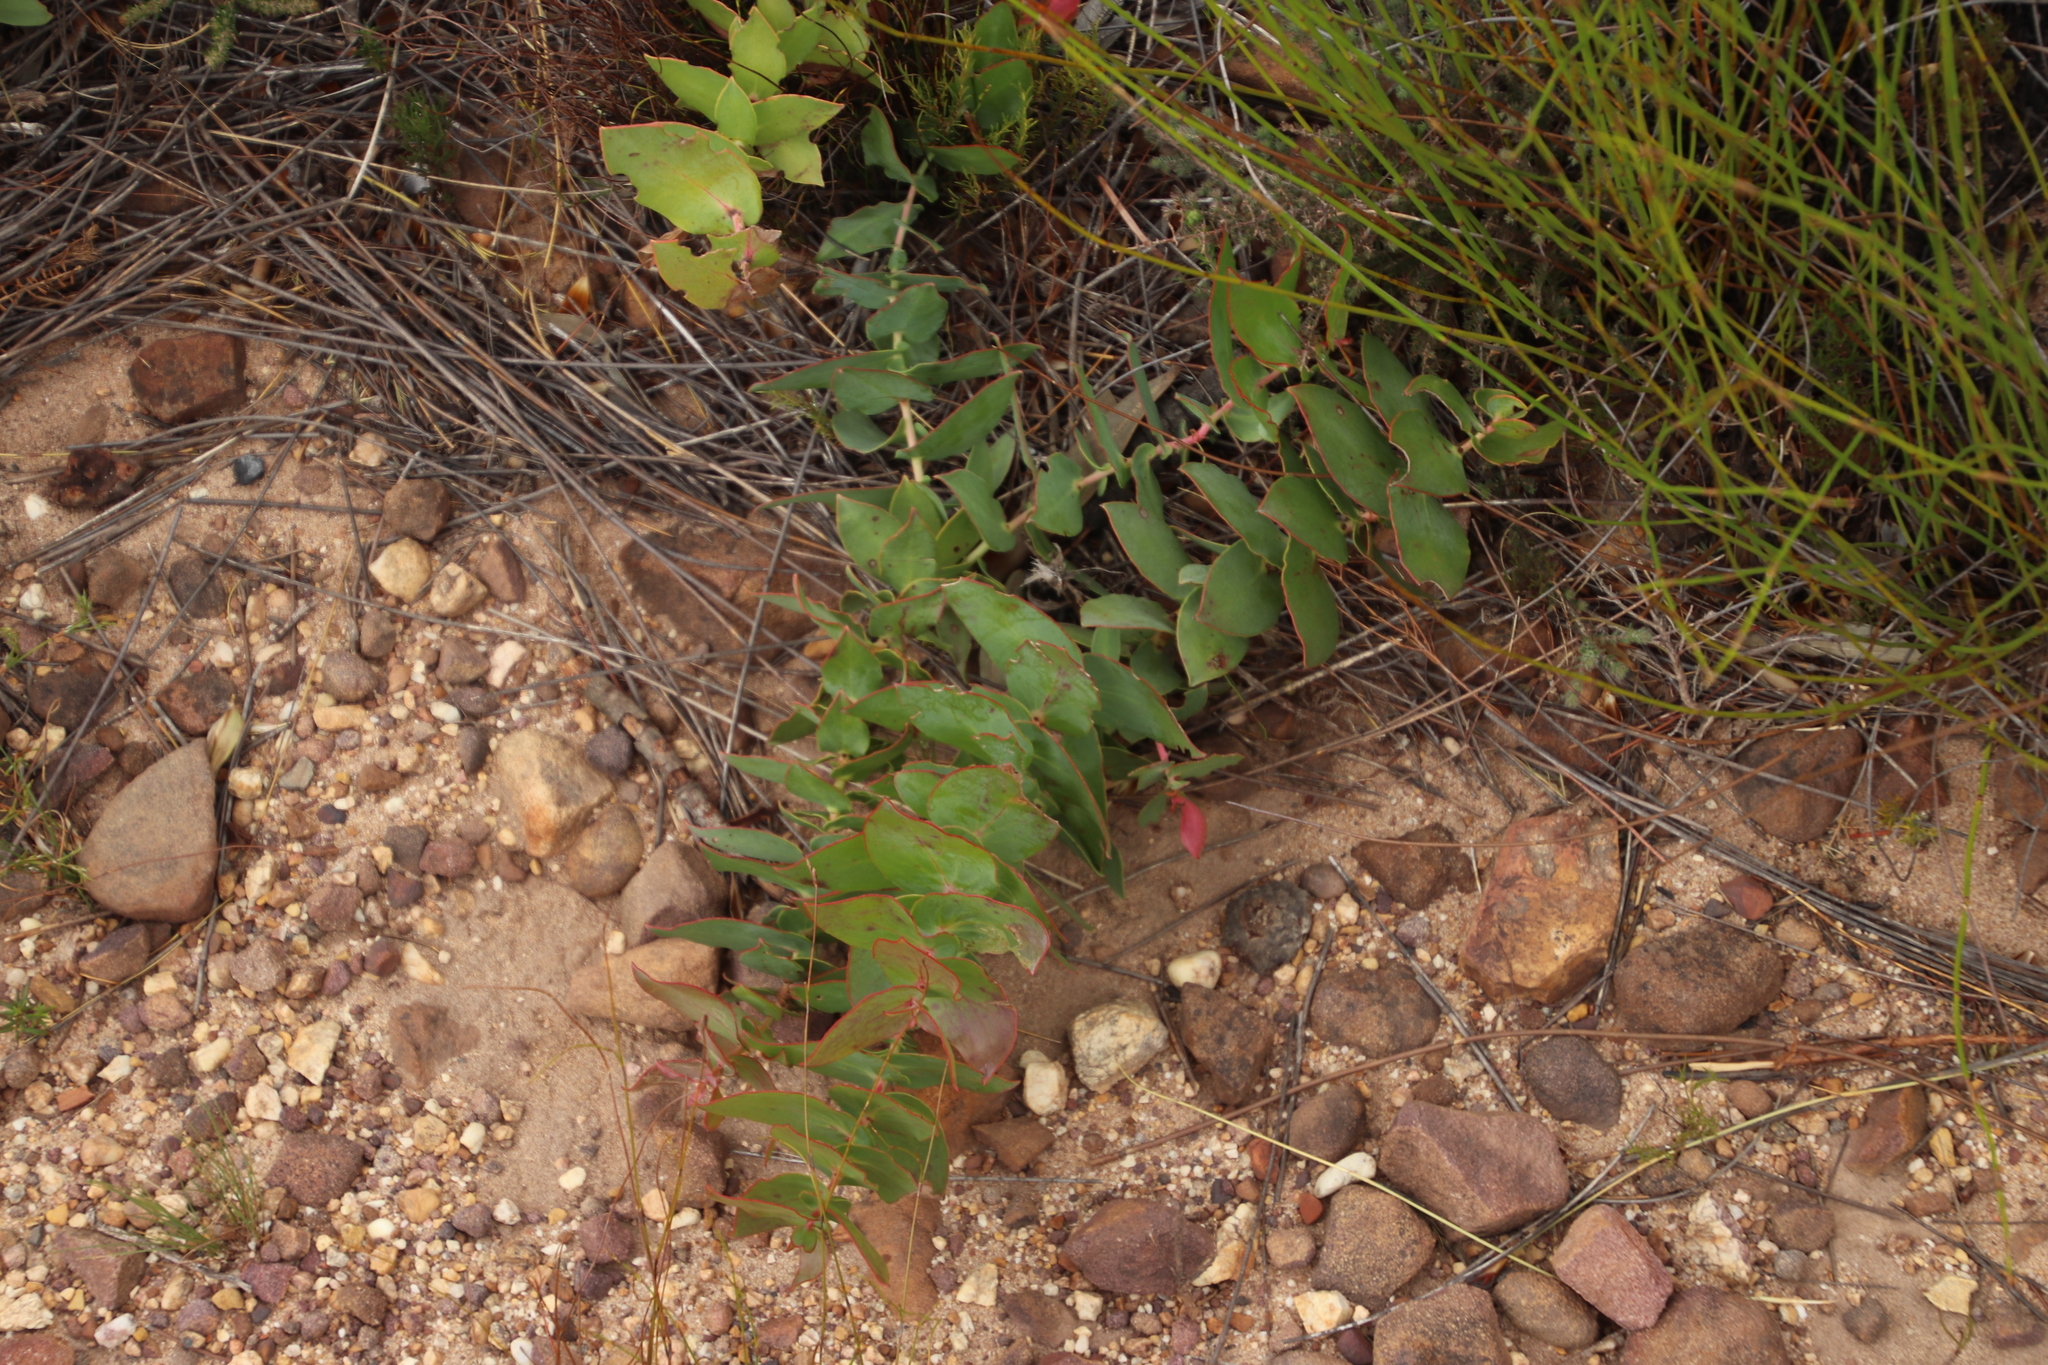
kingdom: Plantae
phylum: Tracheophyta
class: Magnoliopsida
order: Proteales
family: Proteaceae
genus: Protea
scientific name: Protea amplexicaulis
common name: Clasping-leaf sugarbush
